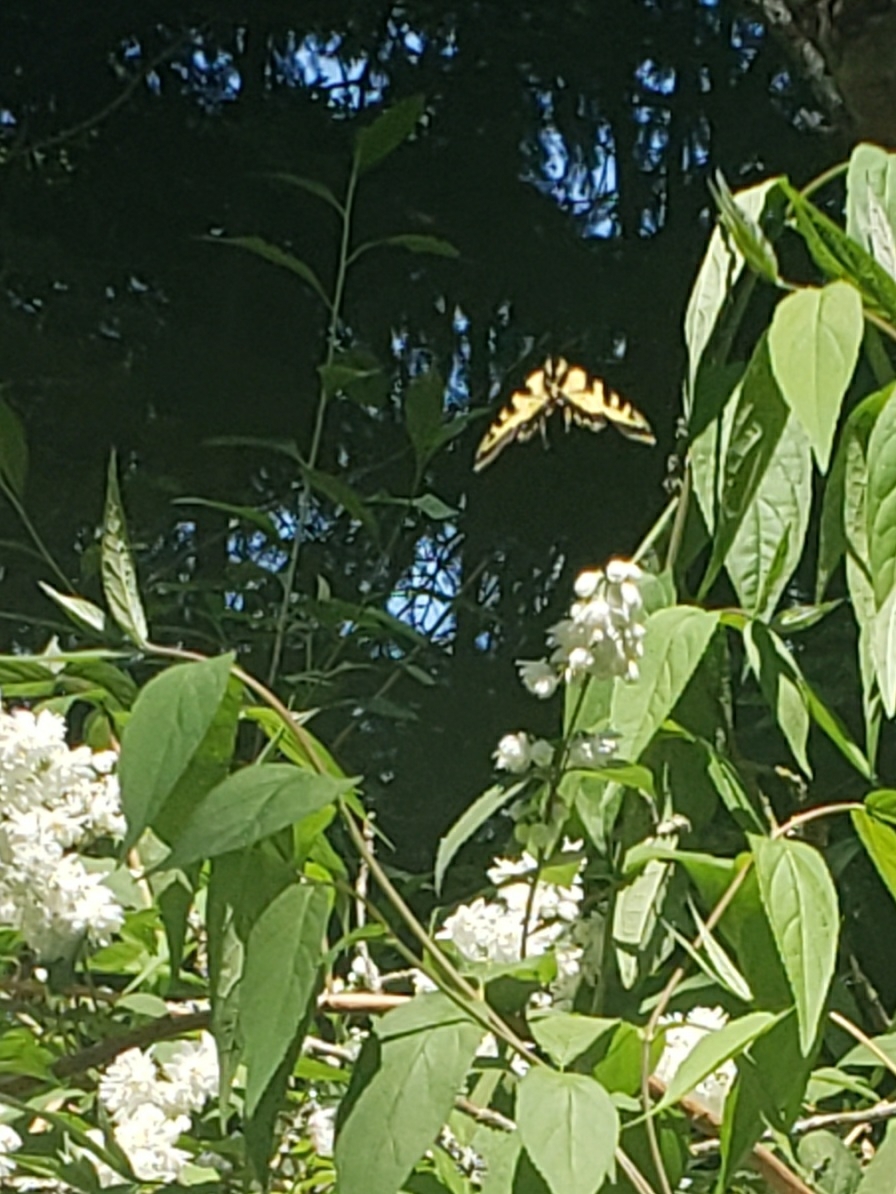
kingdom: Animalia
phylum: Arthropoda
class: Insecta
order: Lepidoptera
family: Papilionidae
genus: Papilio
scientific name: Papilio rutulus
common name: Western tiger swallowtail
